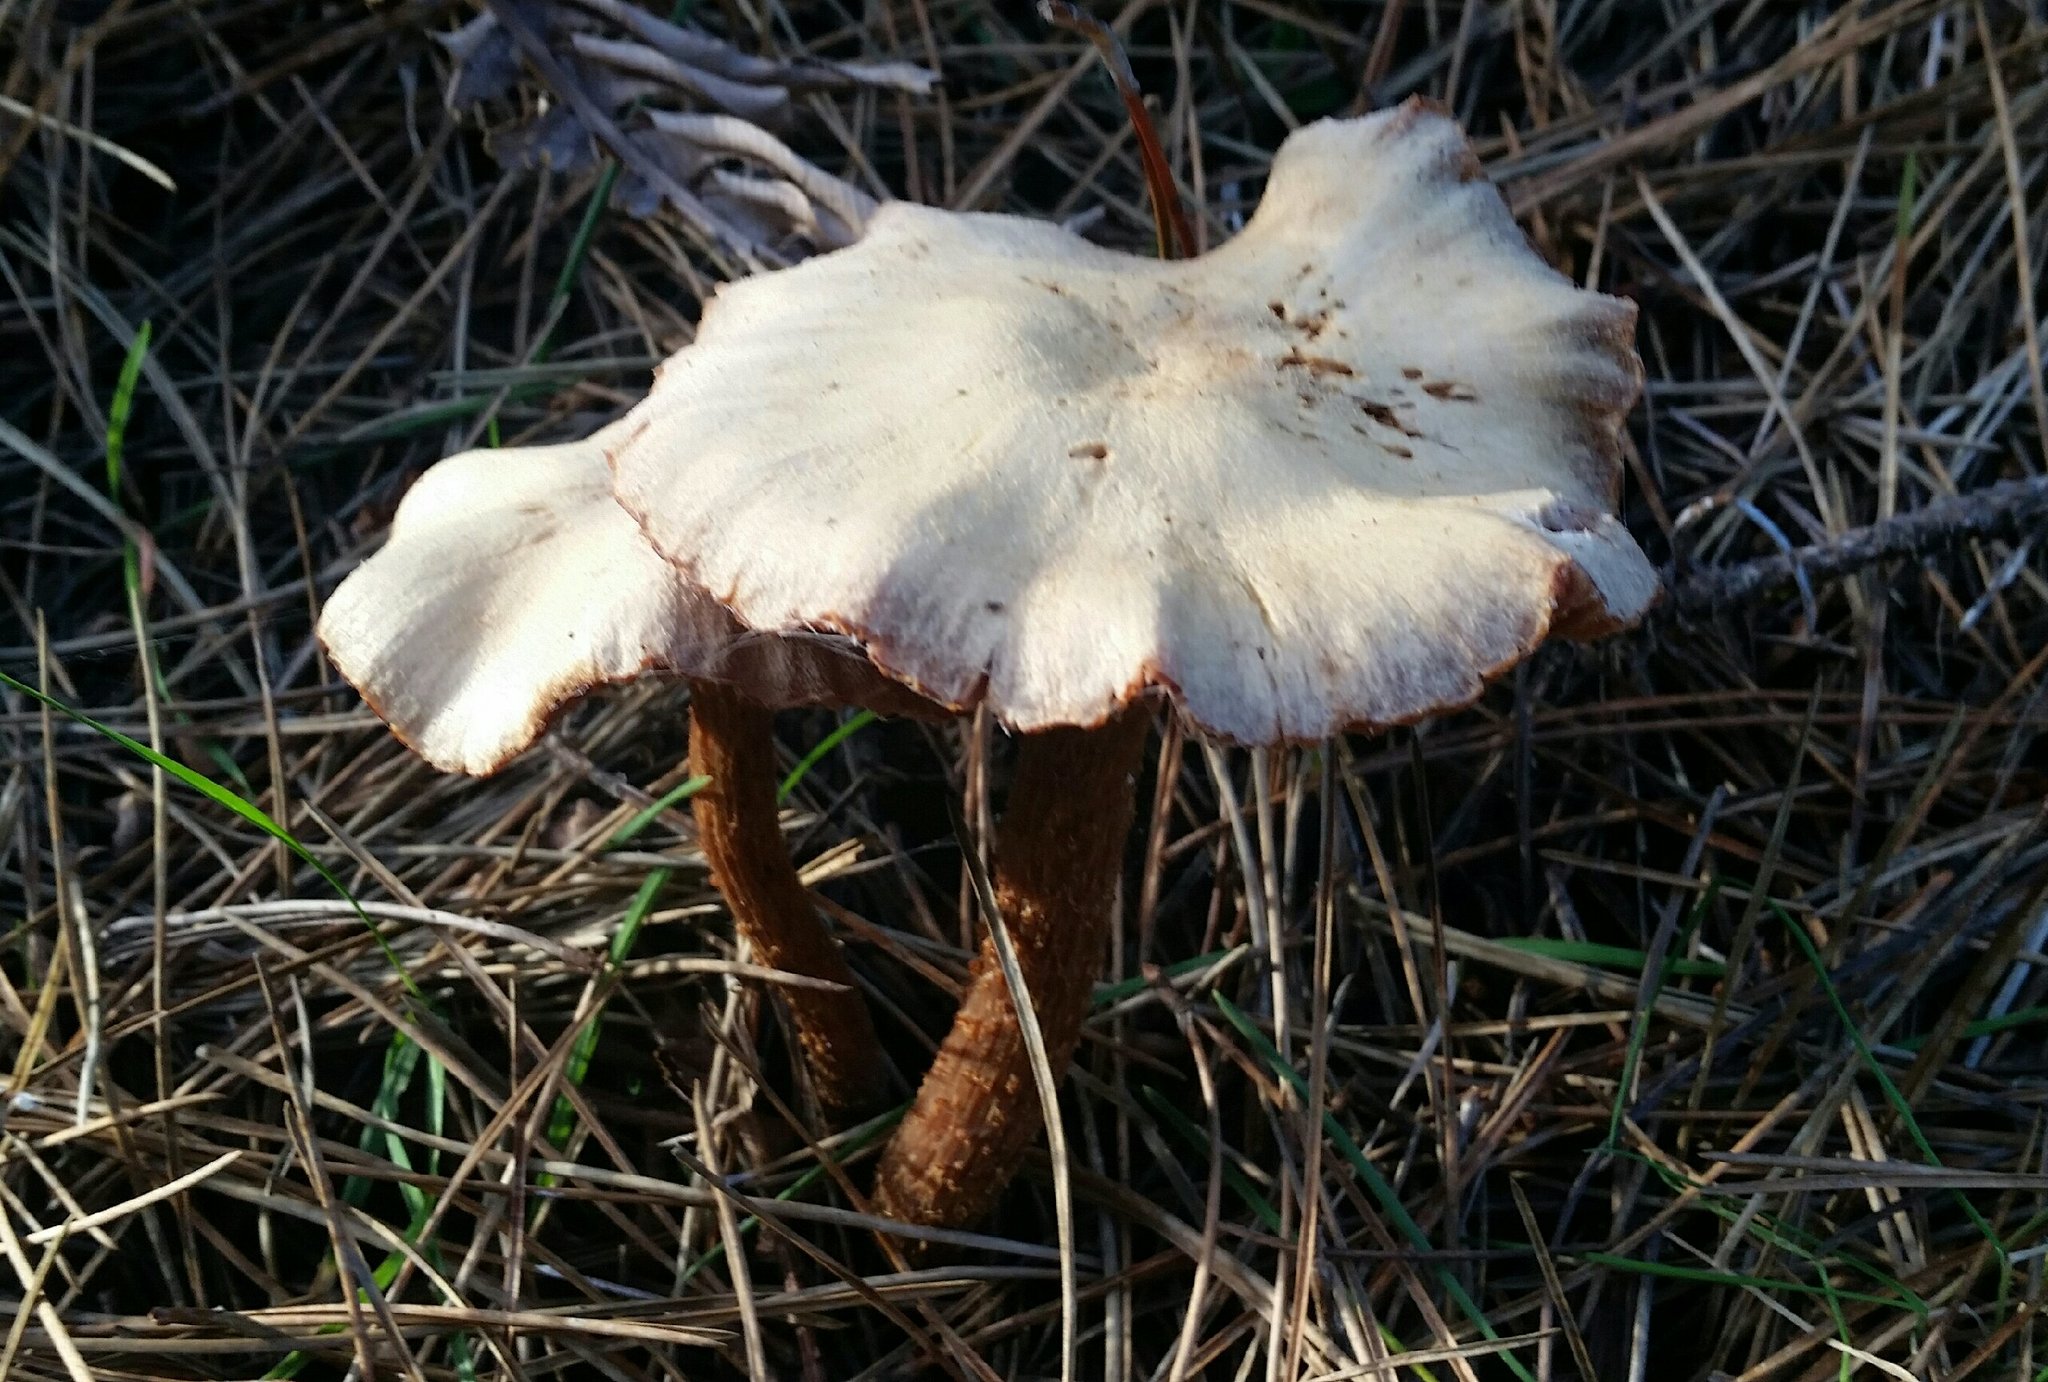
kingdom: Fungi
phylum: Basidiomycota
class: Agaricomycetes
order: Agaricales
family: Hydnangiaceae
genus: Laccaria
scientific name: Laccaria amethysteo-occidentalis
